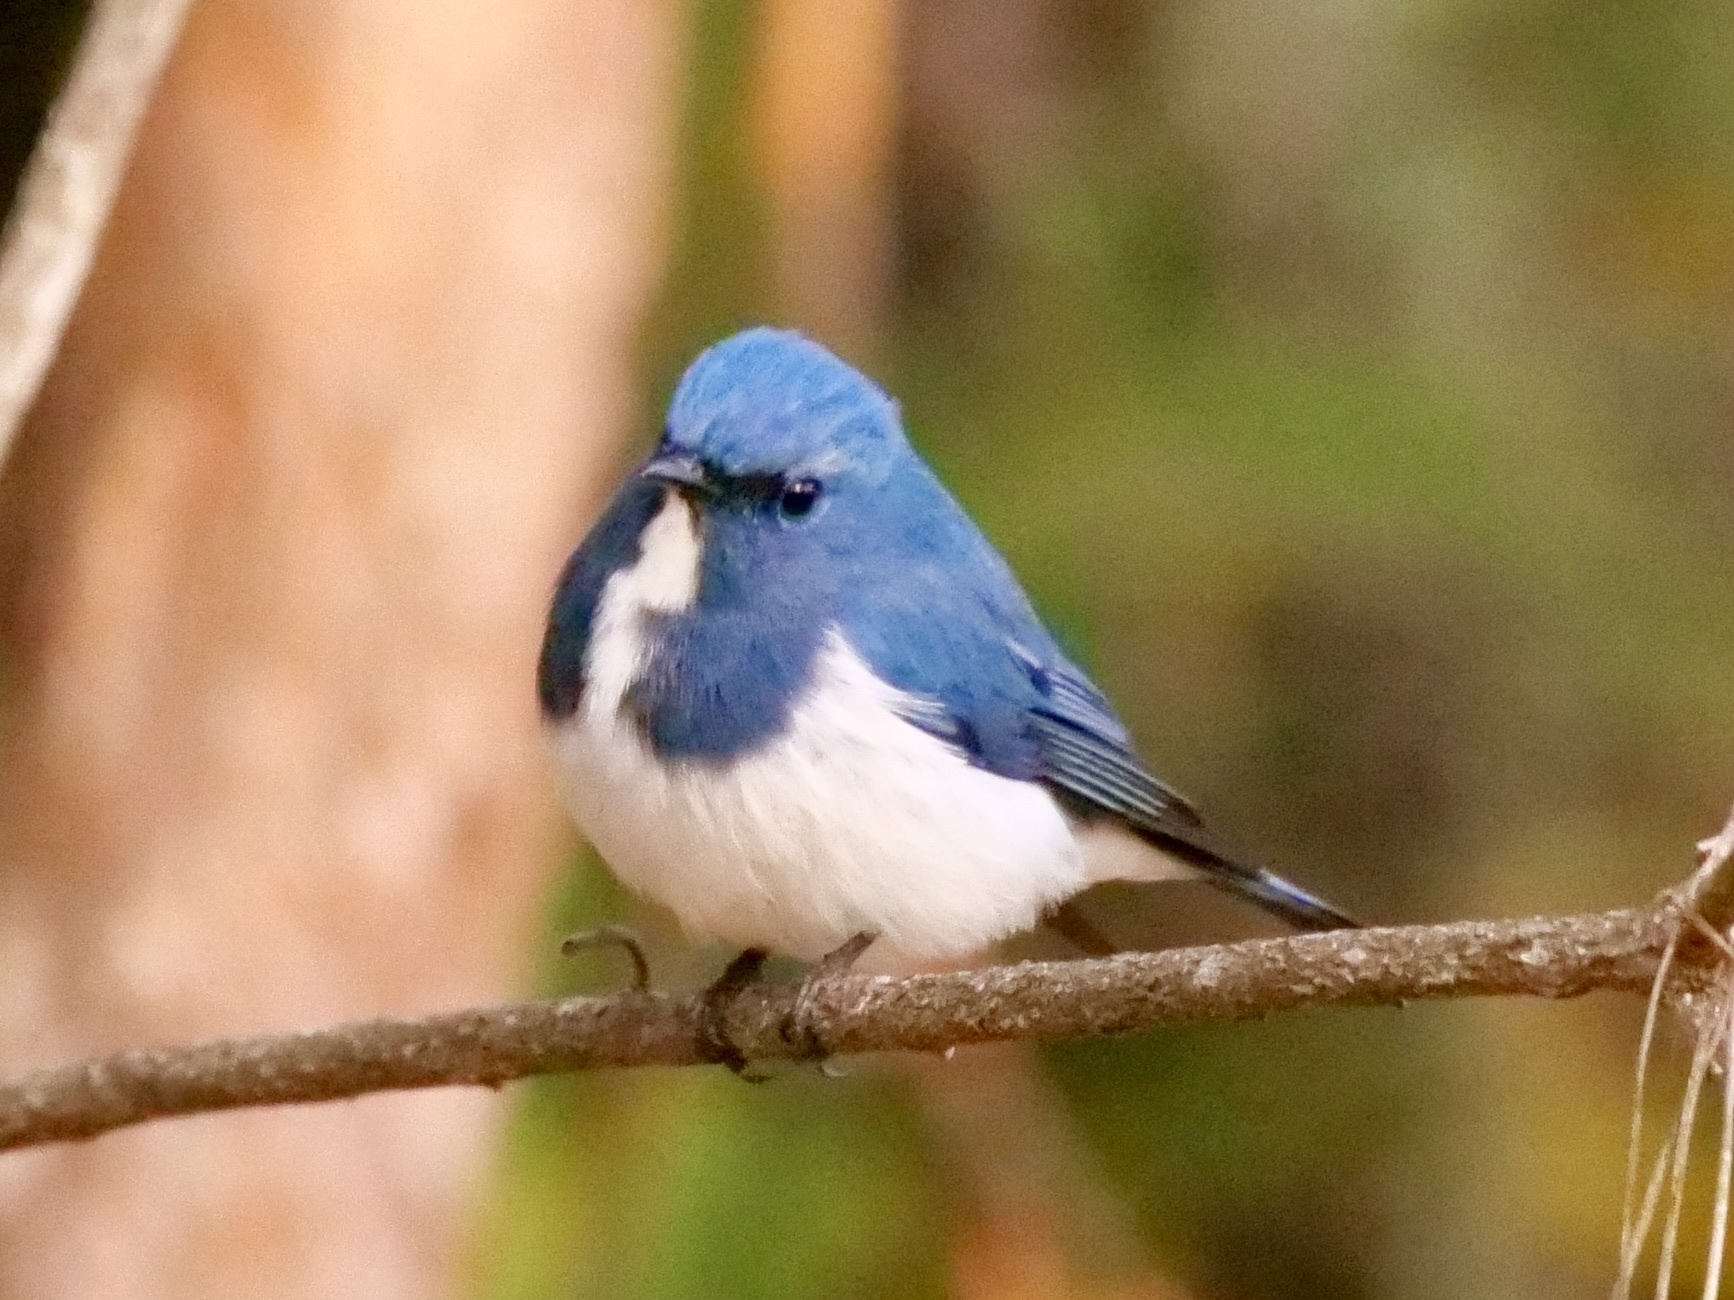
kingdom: Animalia
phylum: Chordata
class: Aves
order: Passeriformes
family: Muscicapidae
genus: Ficedula
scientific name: Ficedula superciliaris
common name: Ultramarine flycatcher
